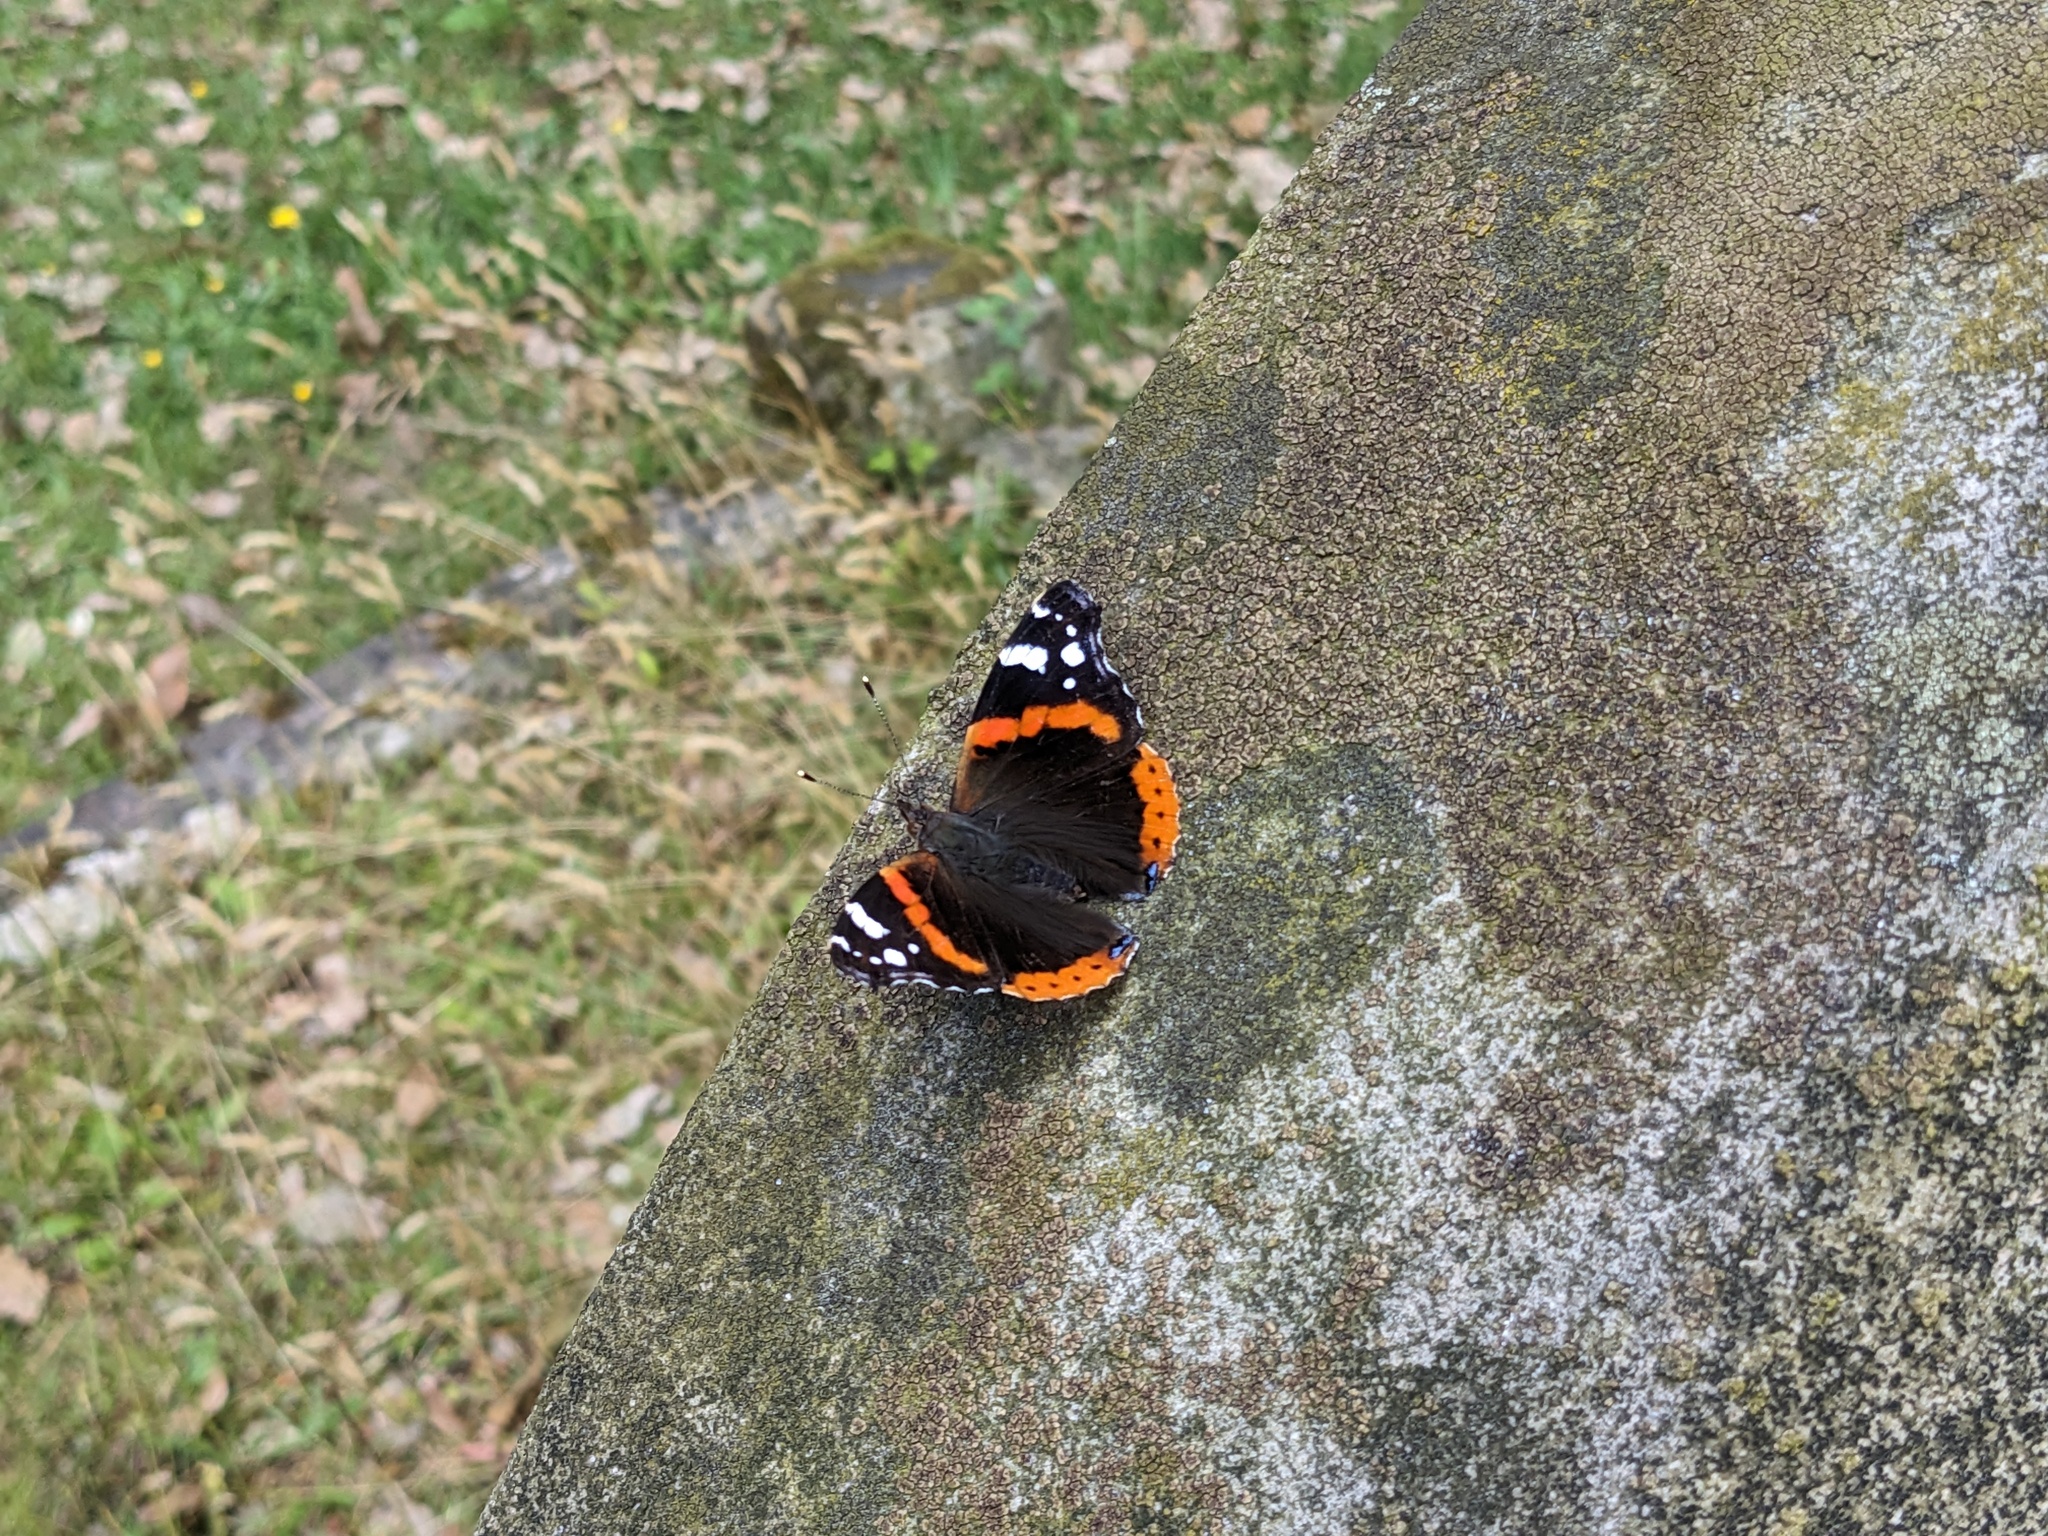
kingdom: Animalia
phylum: Arthropoda
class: Insecta
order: Lepidoptera
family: Nymphalidae
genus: Vanessa
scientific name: Vanessa atalanta
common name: Red admiral
